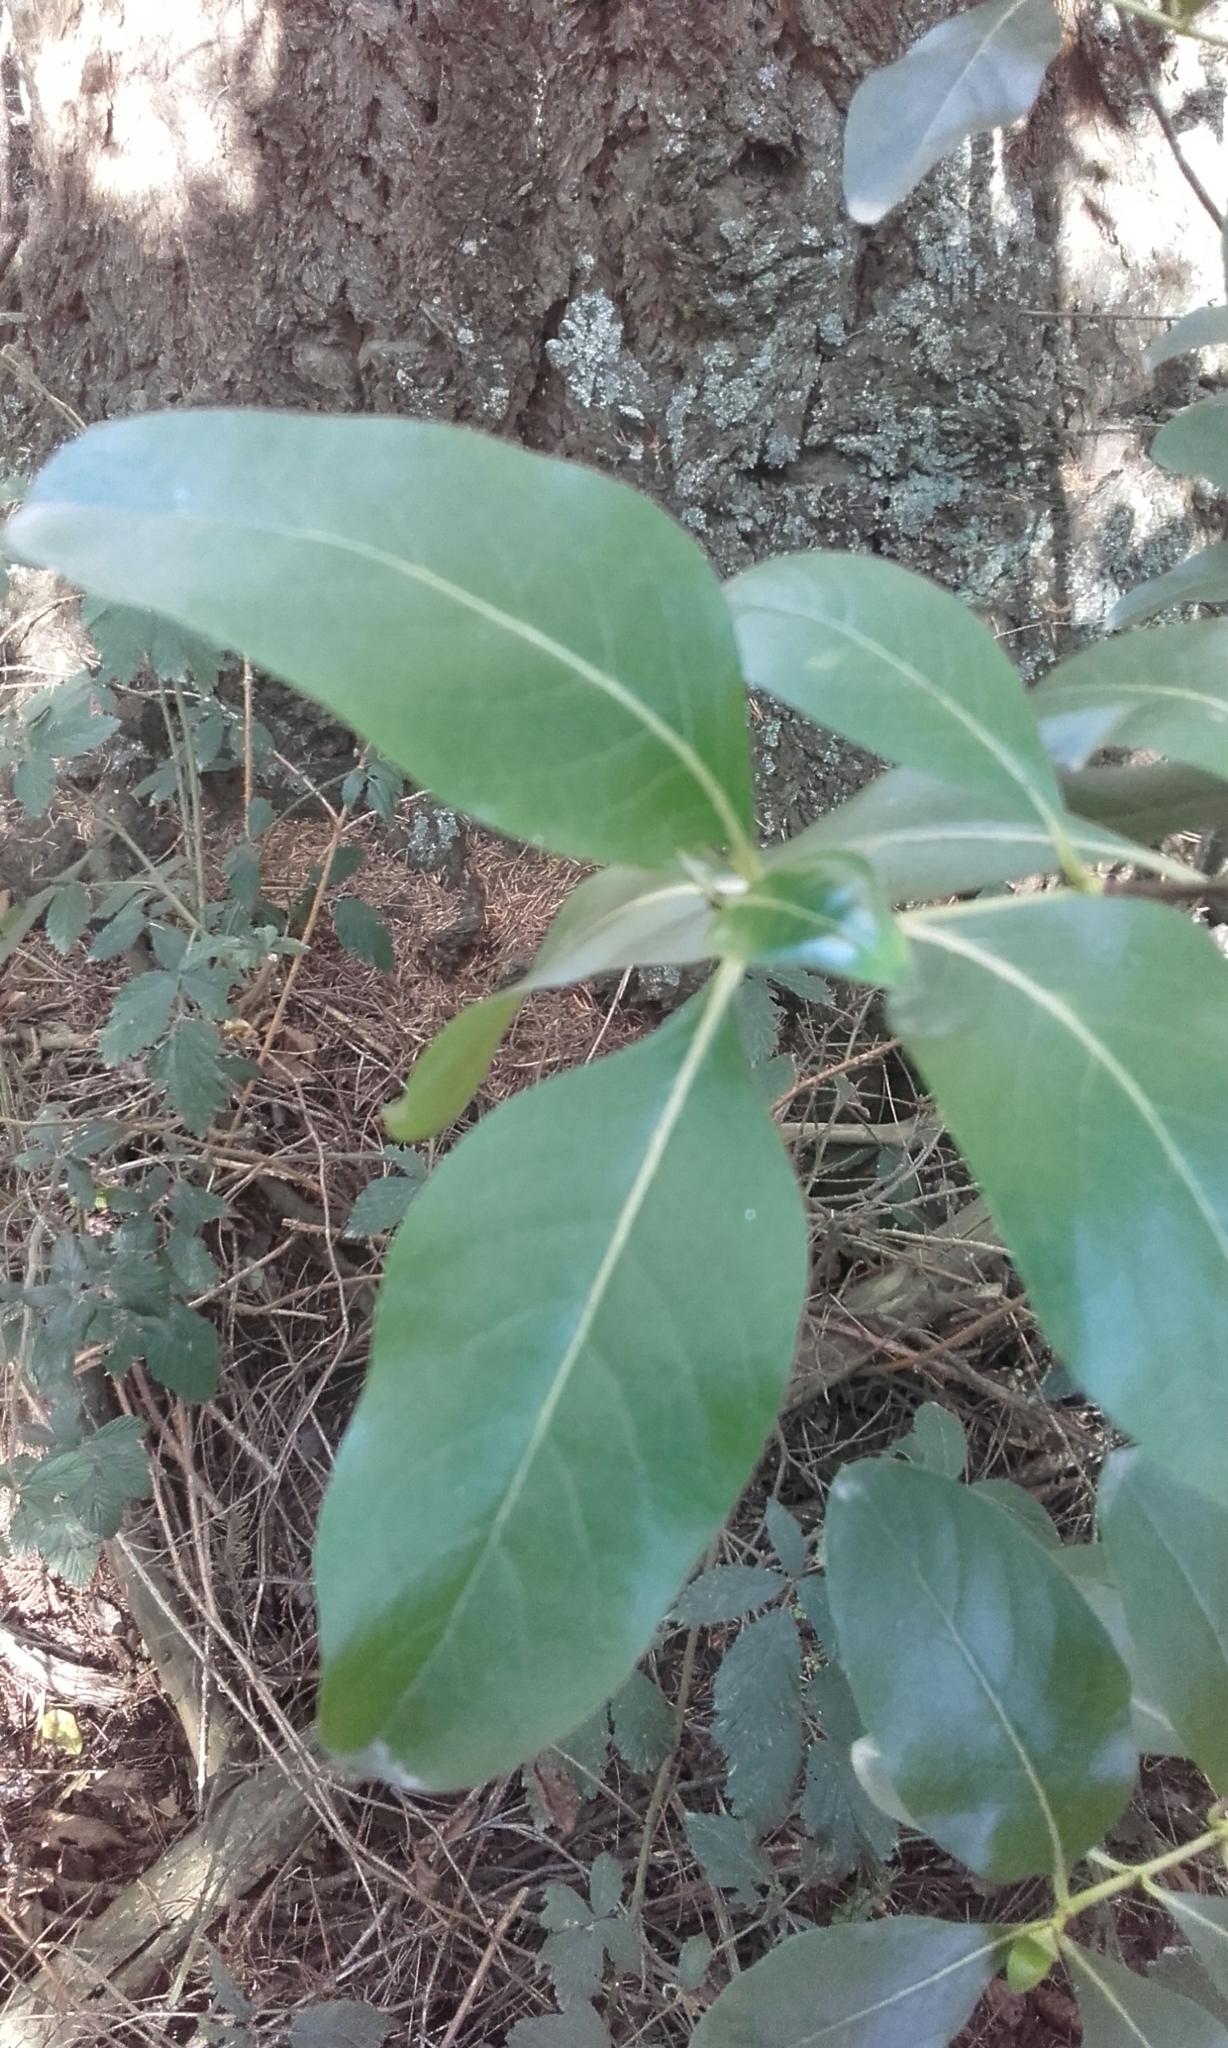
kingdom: Plantae
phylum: Tracheophyta
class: Magnoliopsida
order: Gentianales
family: Rubiaceae
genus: Coprosma
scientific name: Coprosma robusta
